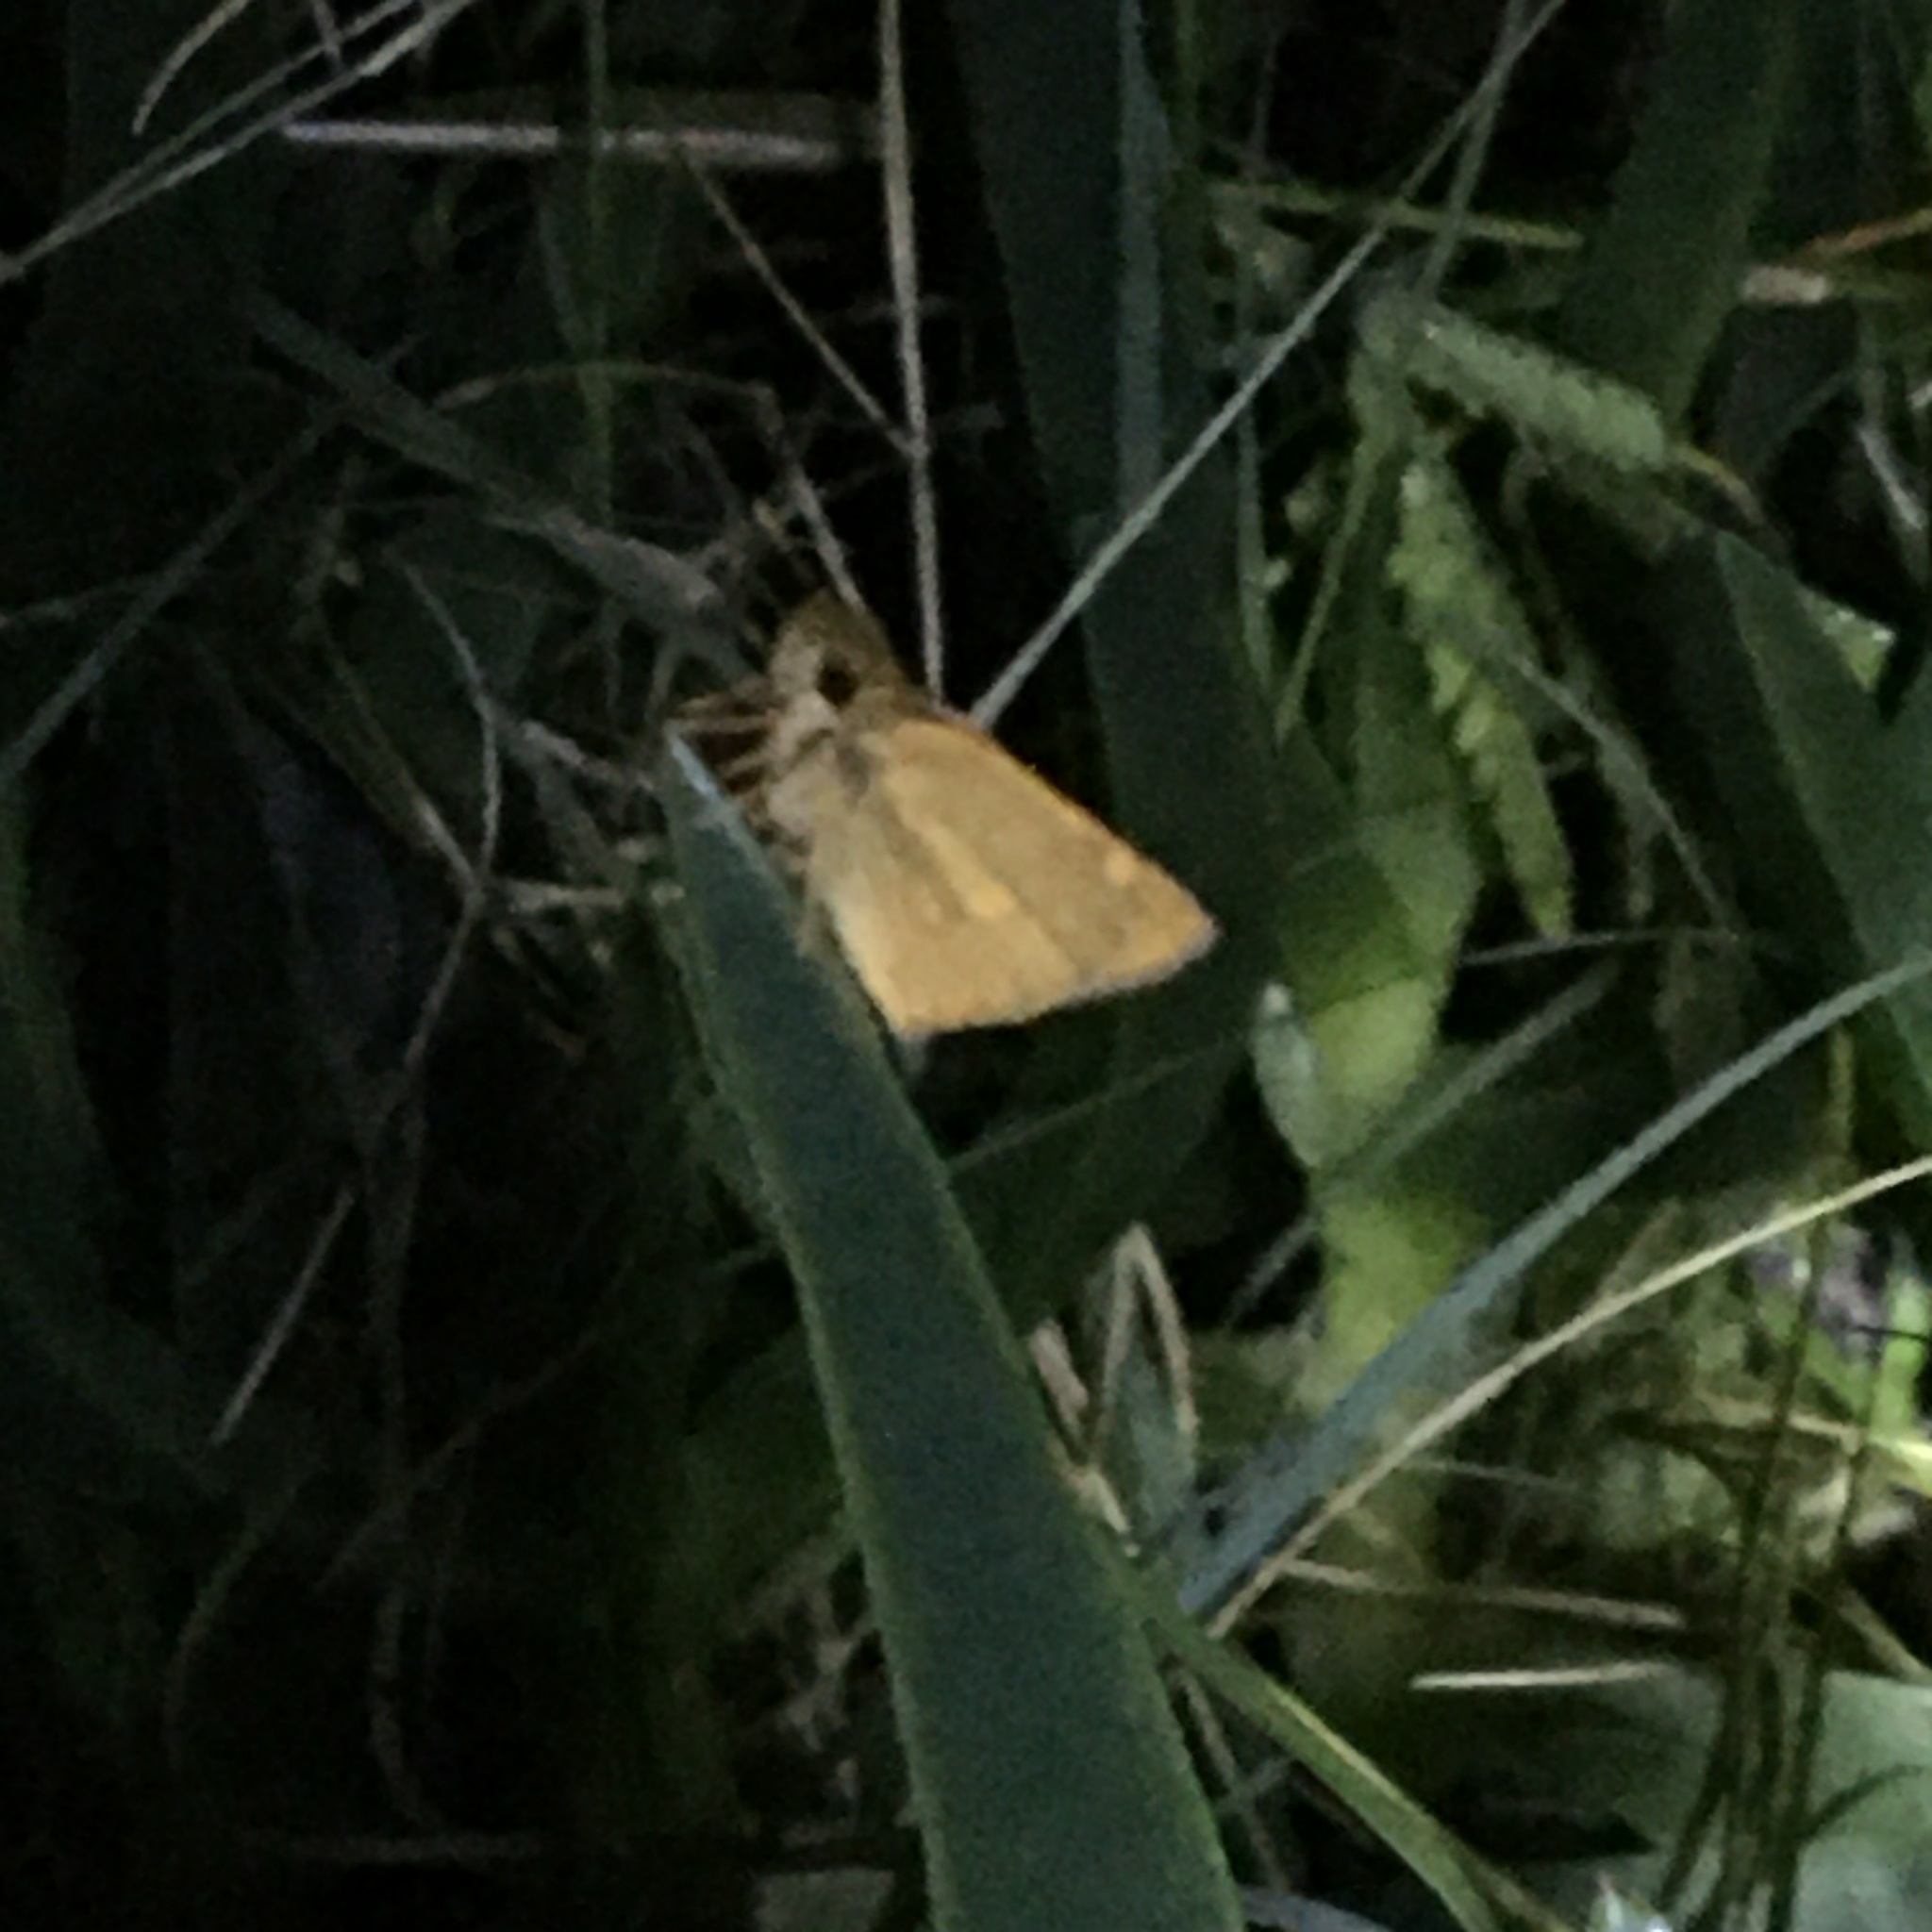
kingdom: Animalia
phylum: Arthropoda
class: Insecta
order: Lepidoptera
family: Hesperiidae
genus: Metisella
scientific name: Metisella malgacha
